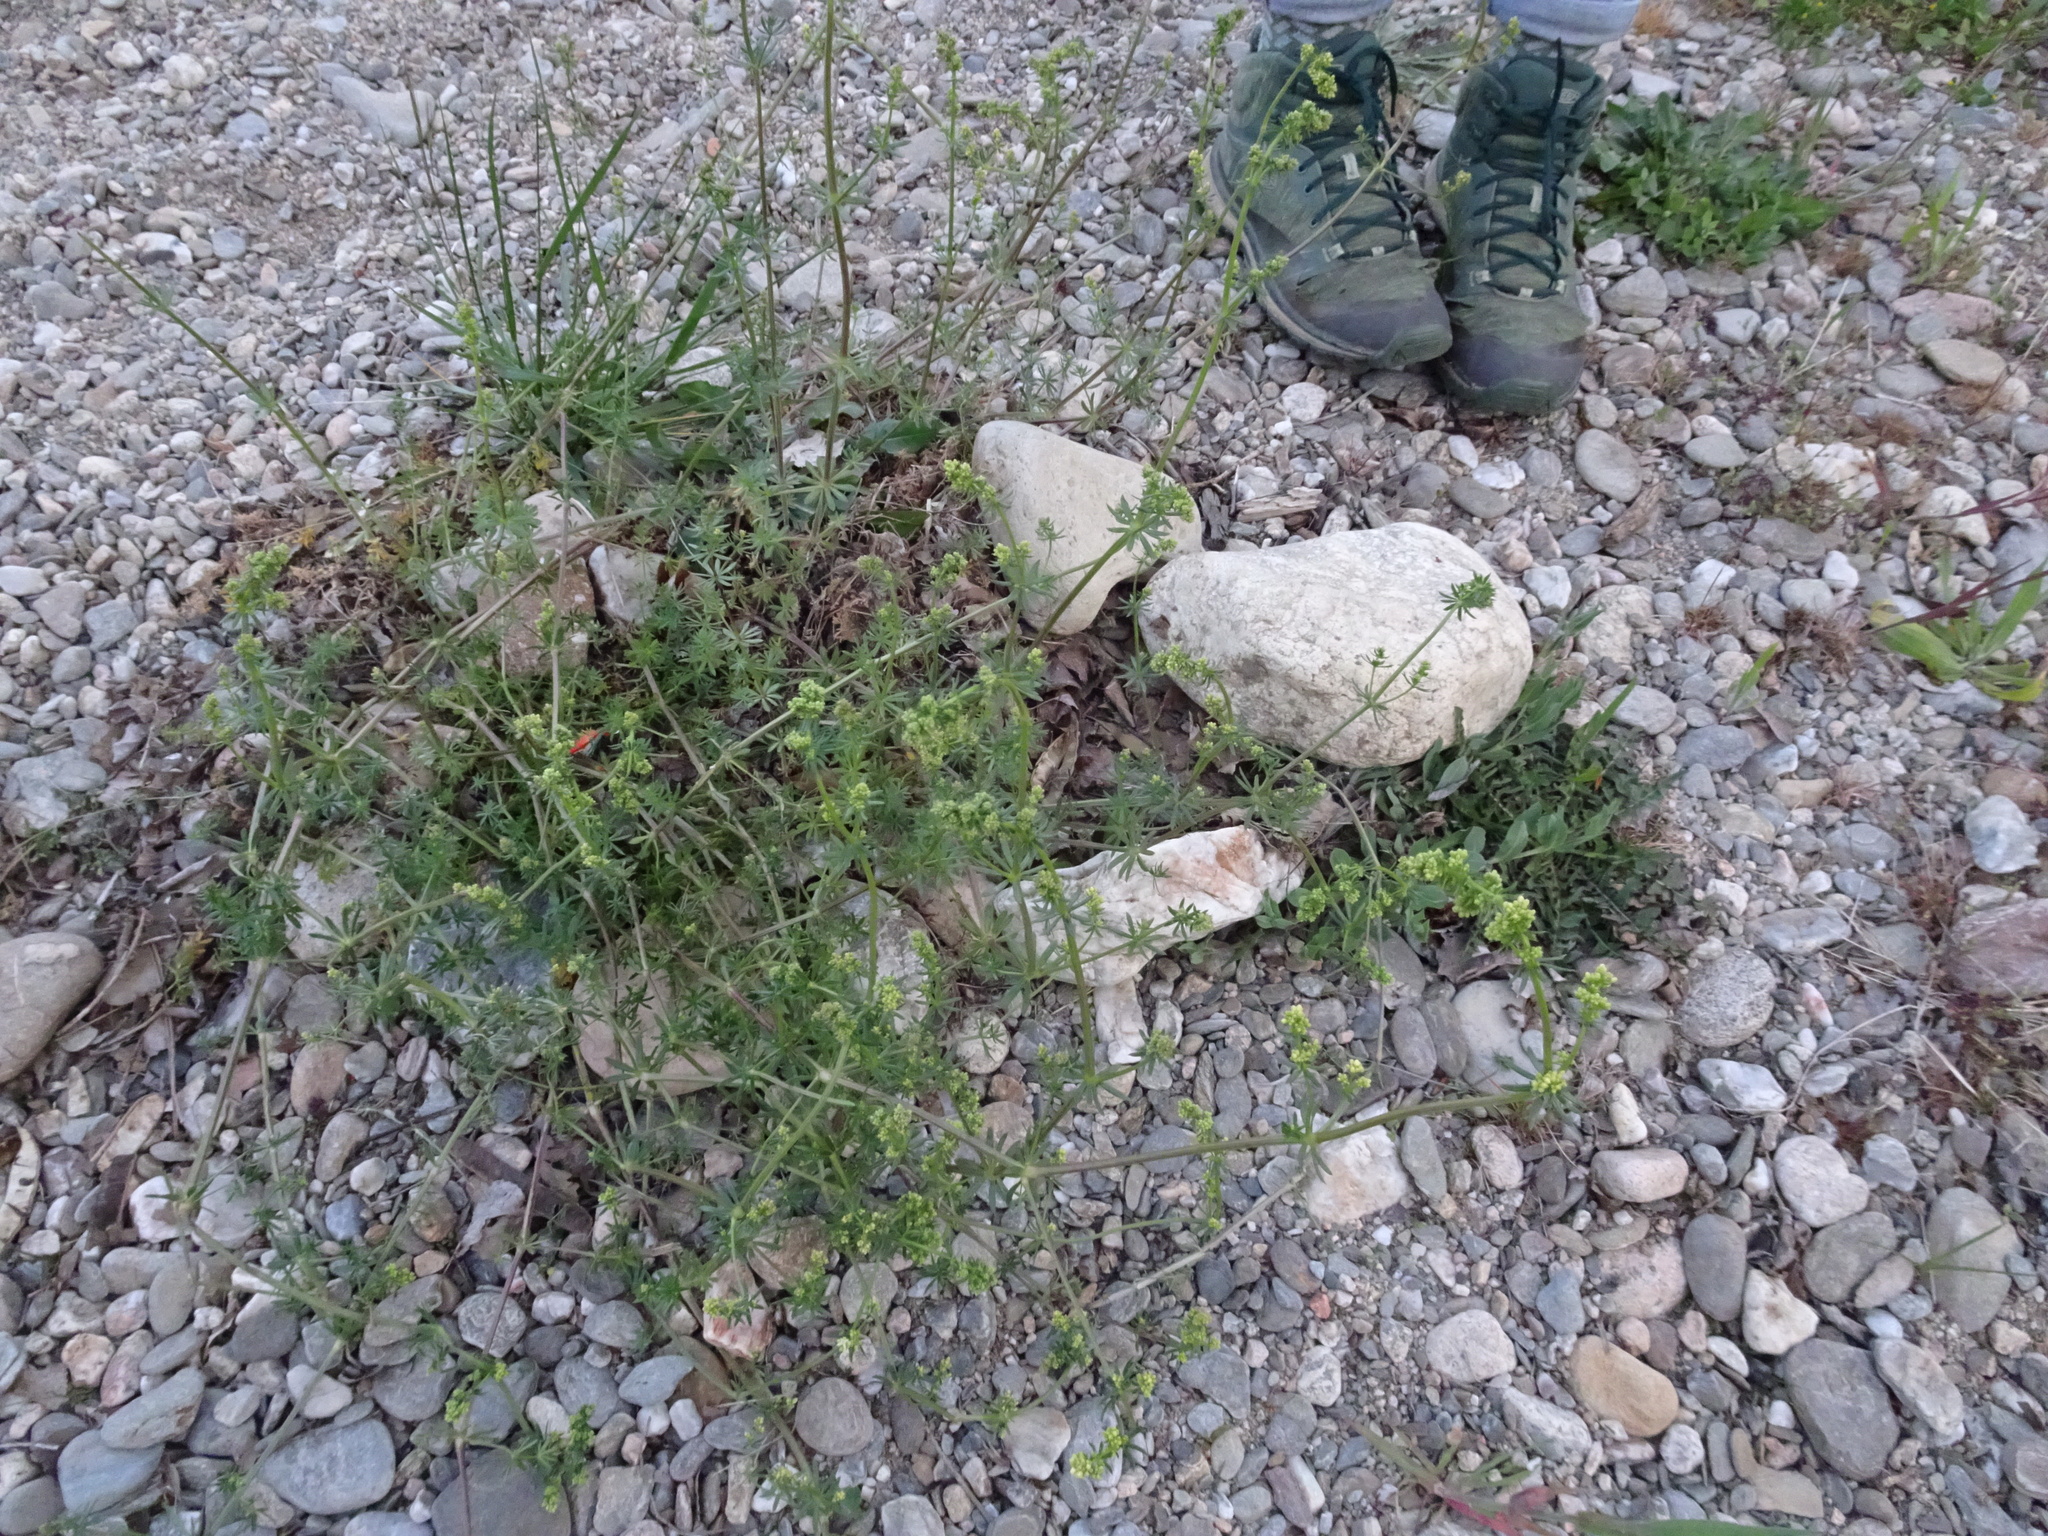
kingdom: Plantae
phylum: Tracheophyta
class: Magnoliopsida
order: Gentianales
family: Rubiaceae
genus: Galium
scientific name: Galium verum
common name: Lady's bedstraw
